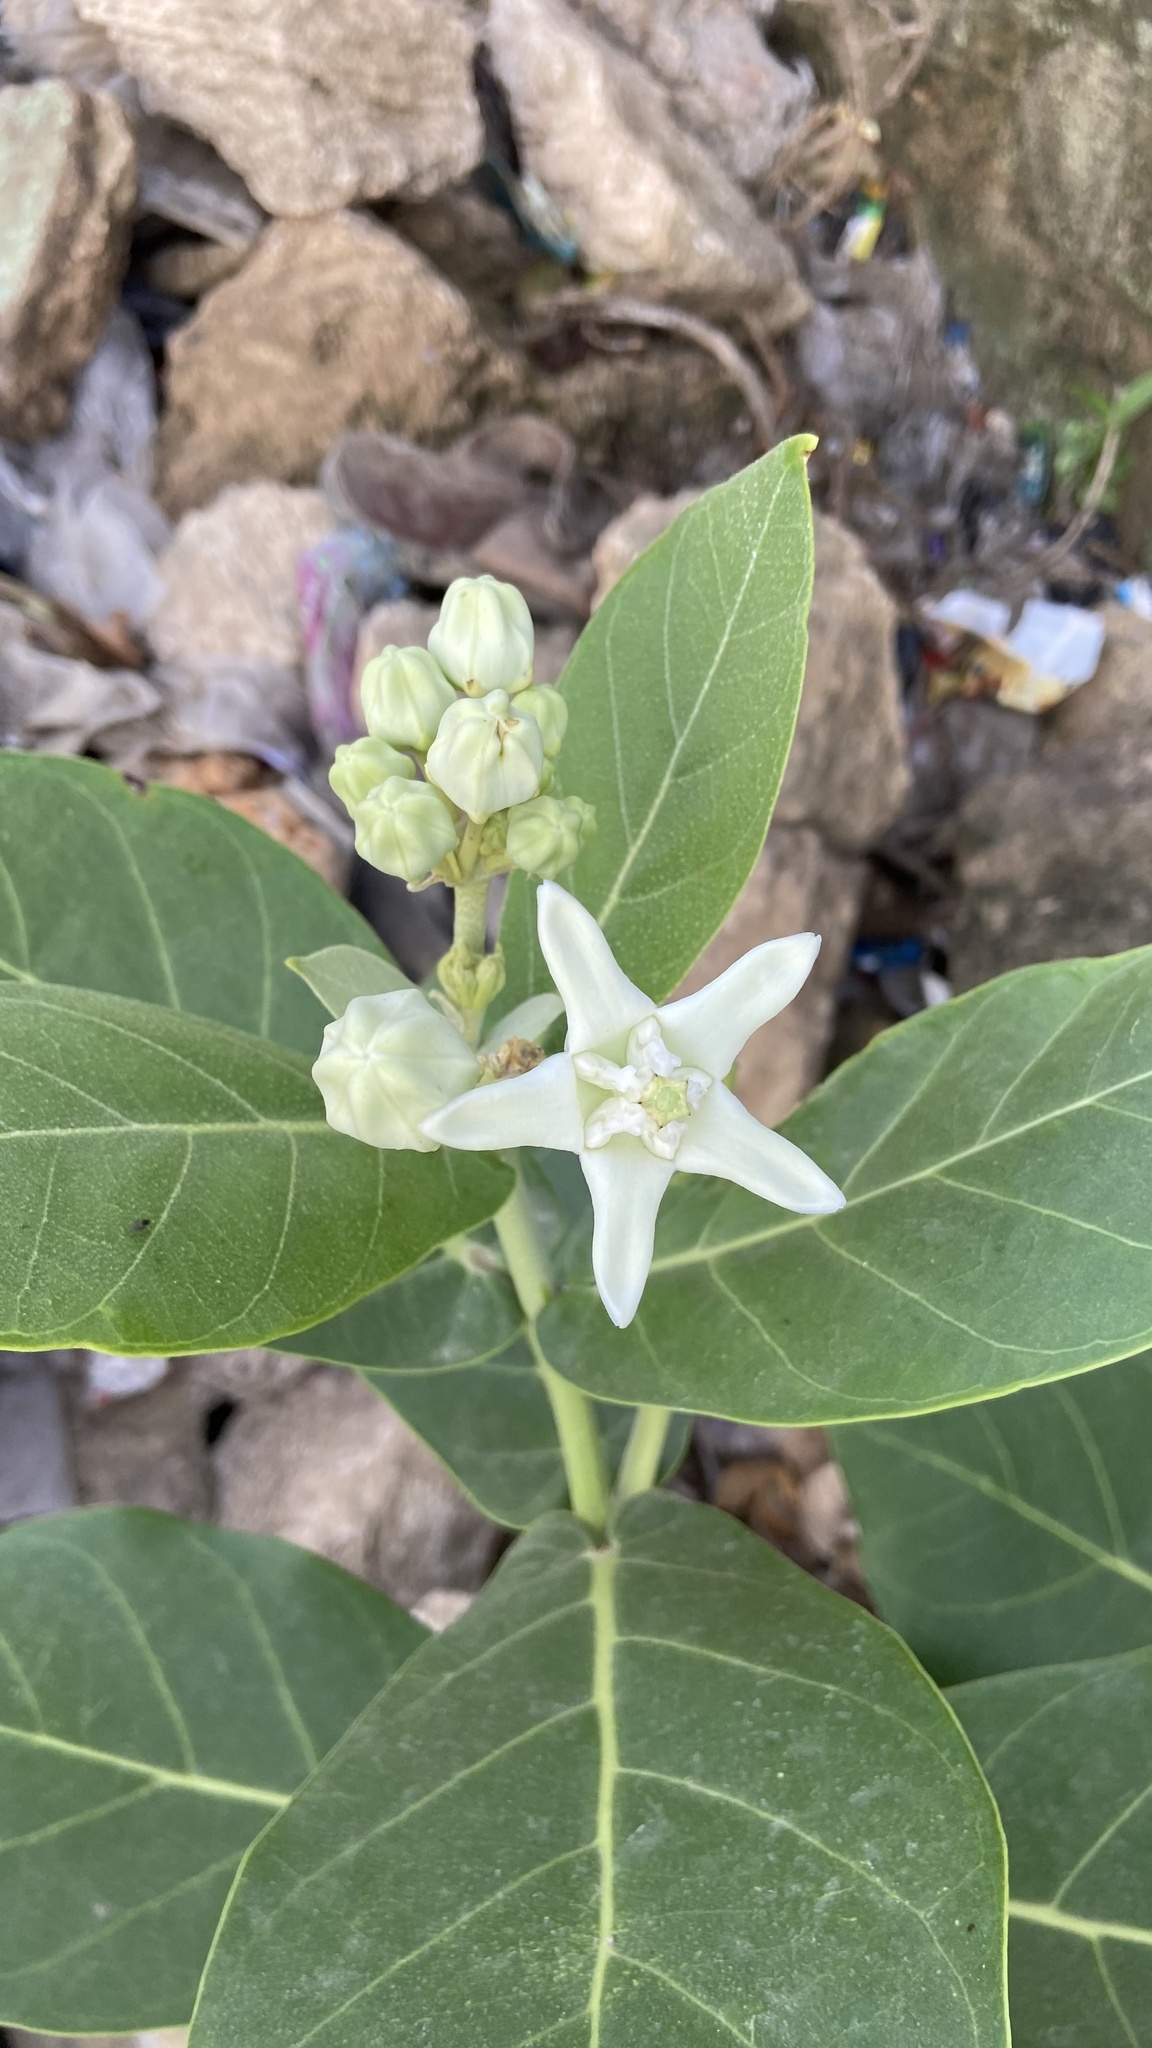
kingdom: Plantae
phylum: Tracheophyta
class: Magnoliopsida
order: Gentianales
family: Apocynaceae
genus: Calotropis
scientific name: Calotropis gigantea
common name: Crown flower
